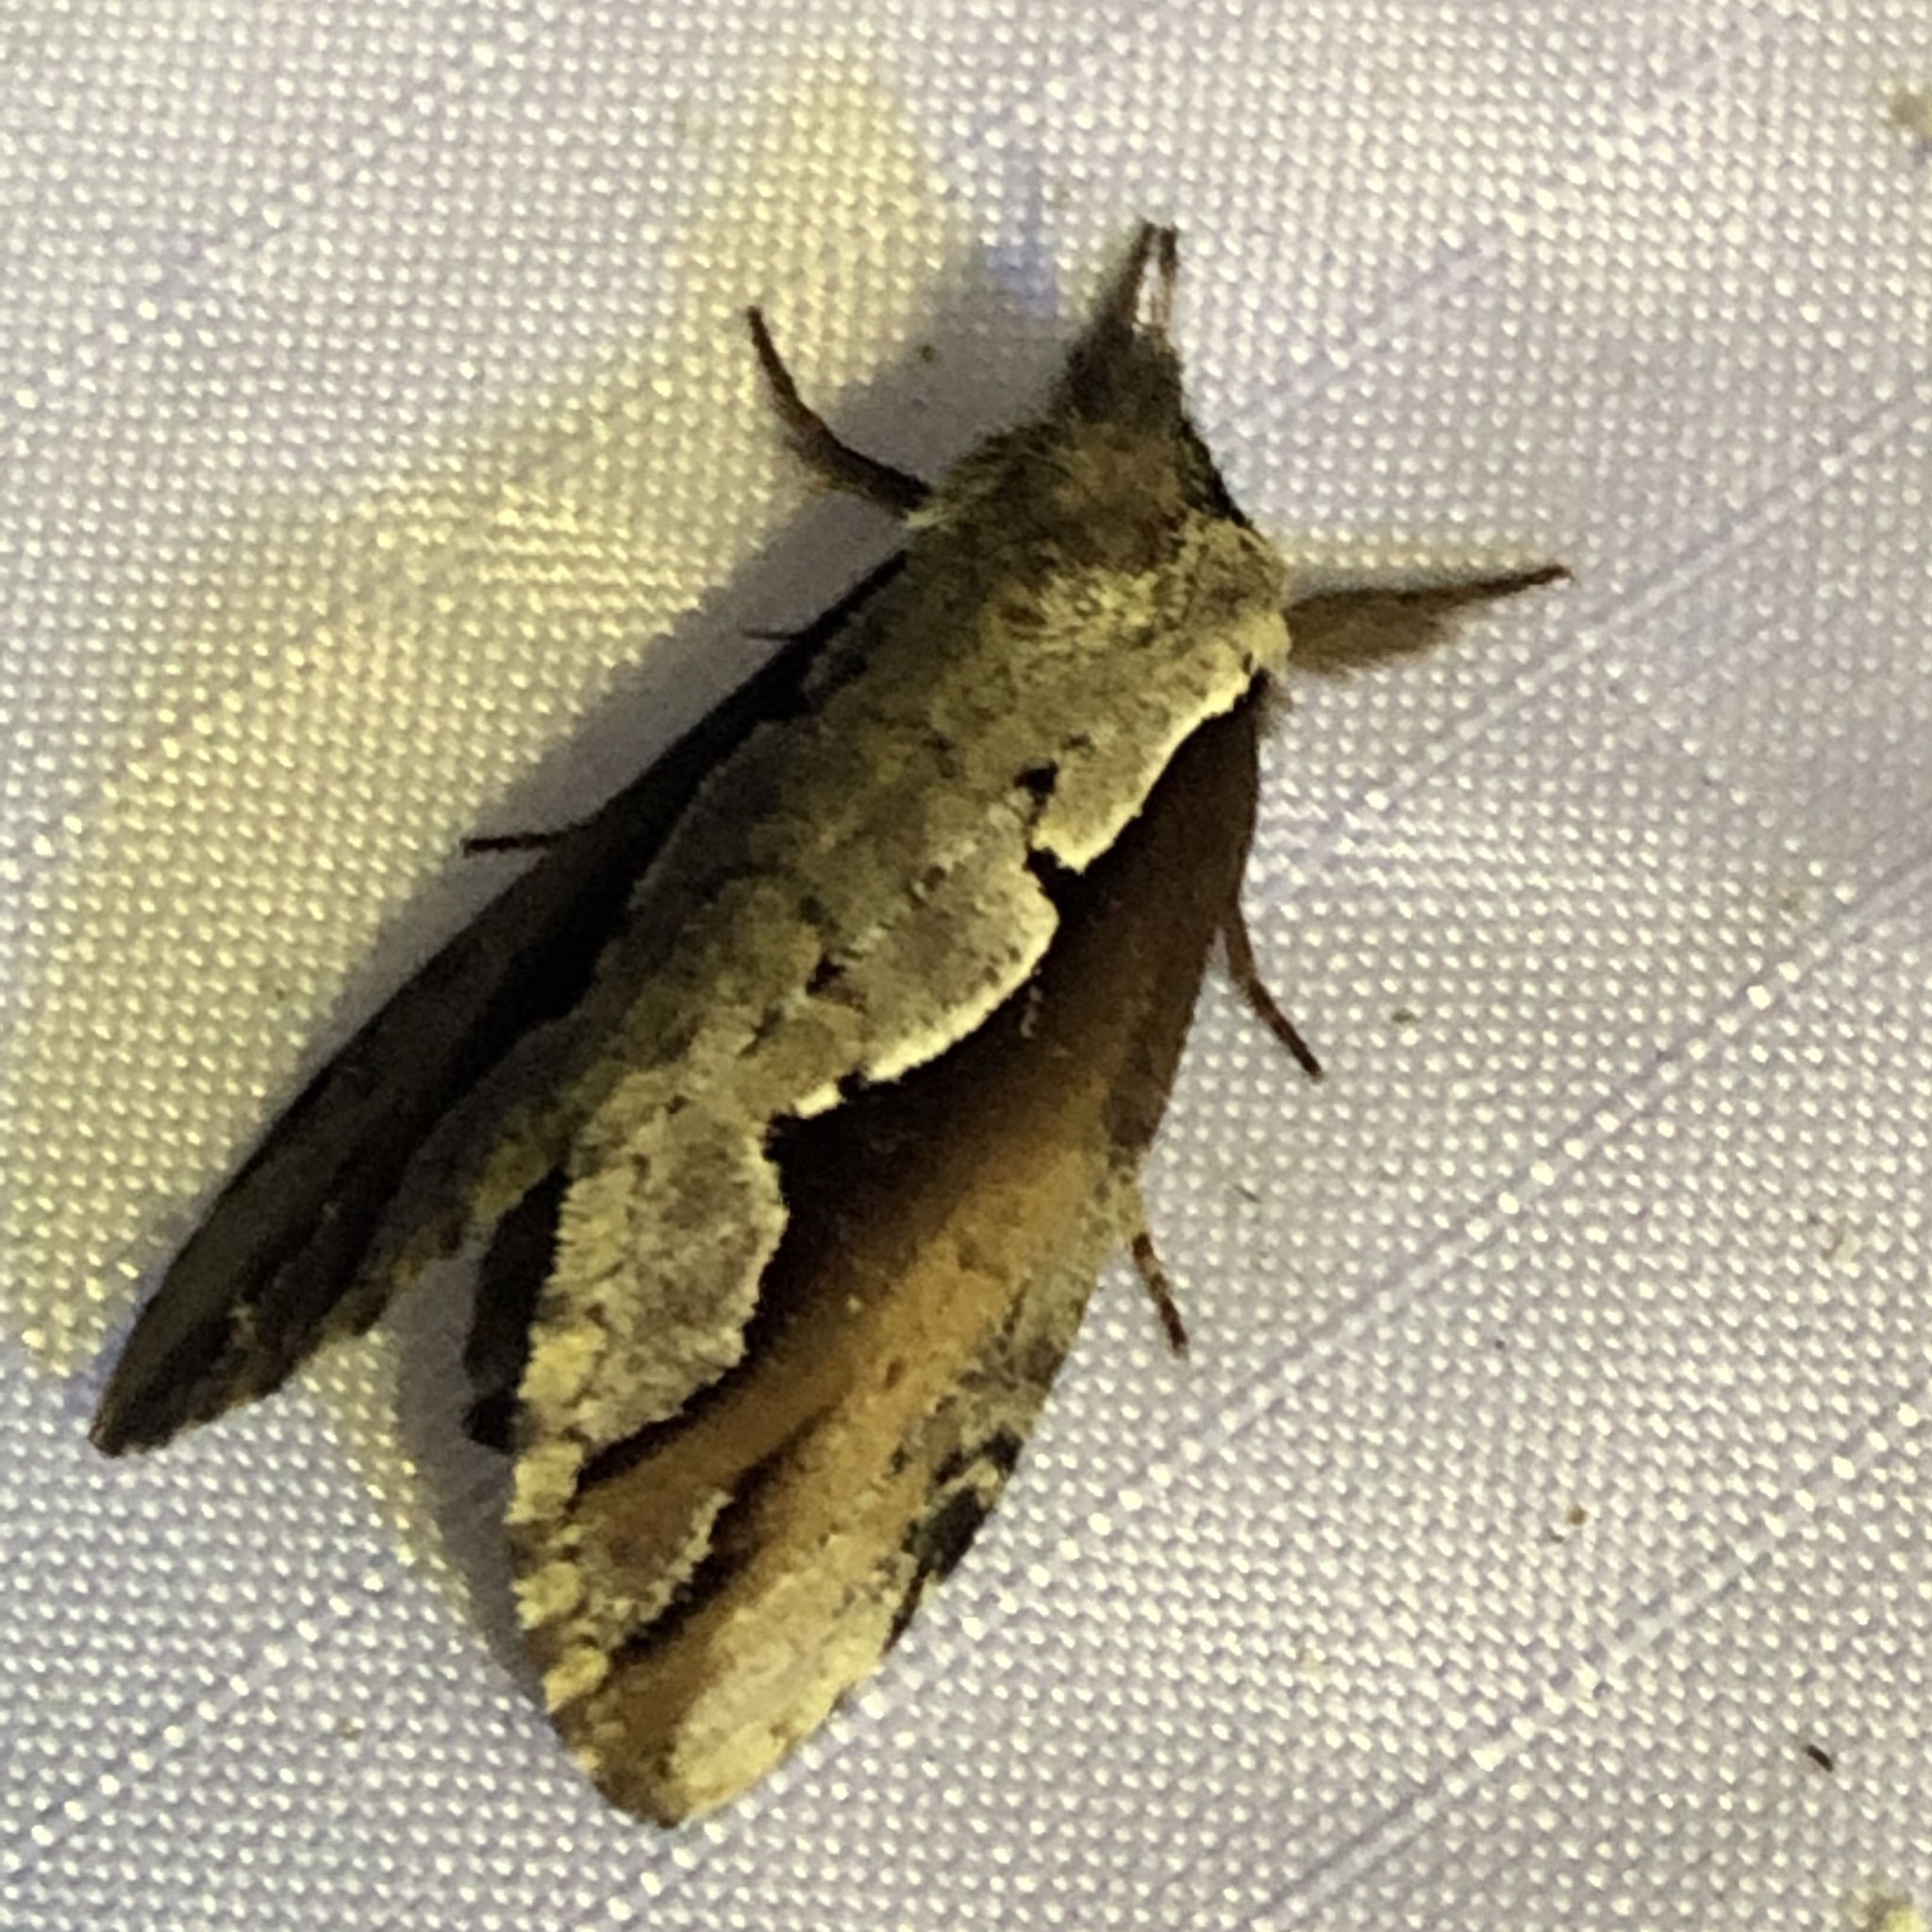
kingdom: Animalia
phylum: Arthropoda
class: Insecta
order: Lepidoptera
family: Notodontidae
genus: Nerice
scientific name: Nerice bidentata
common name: Double-toothed prominent
